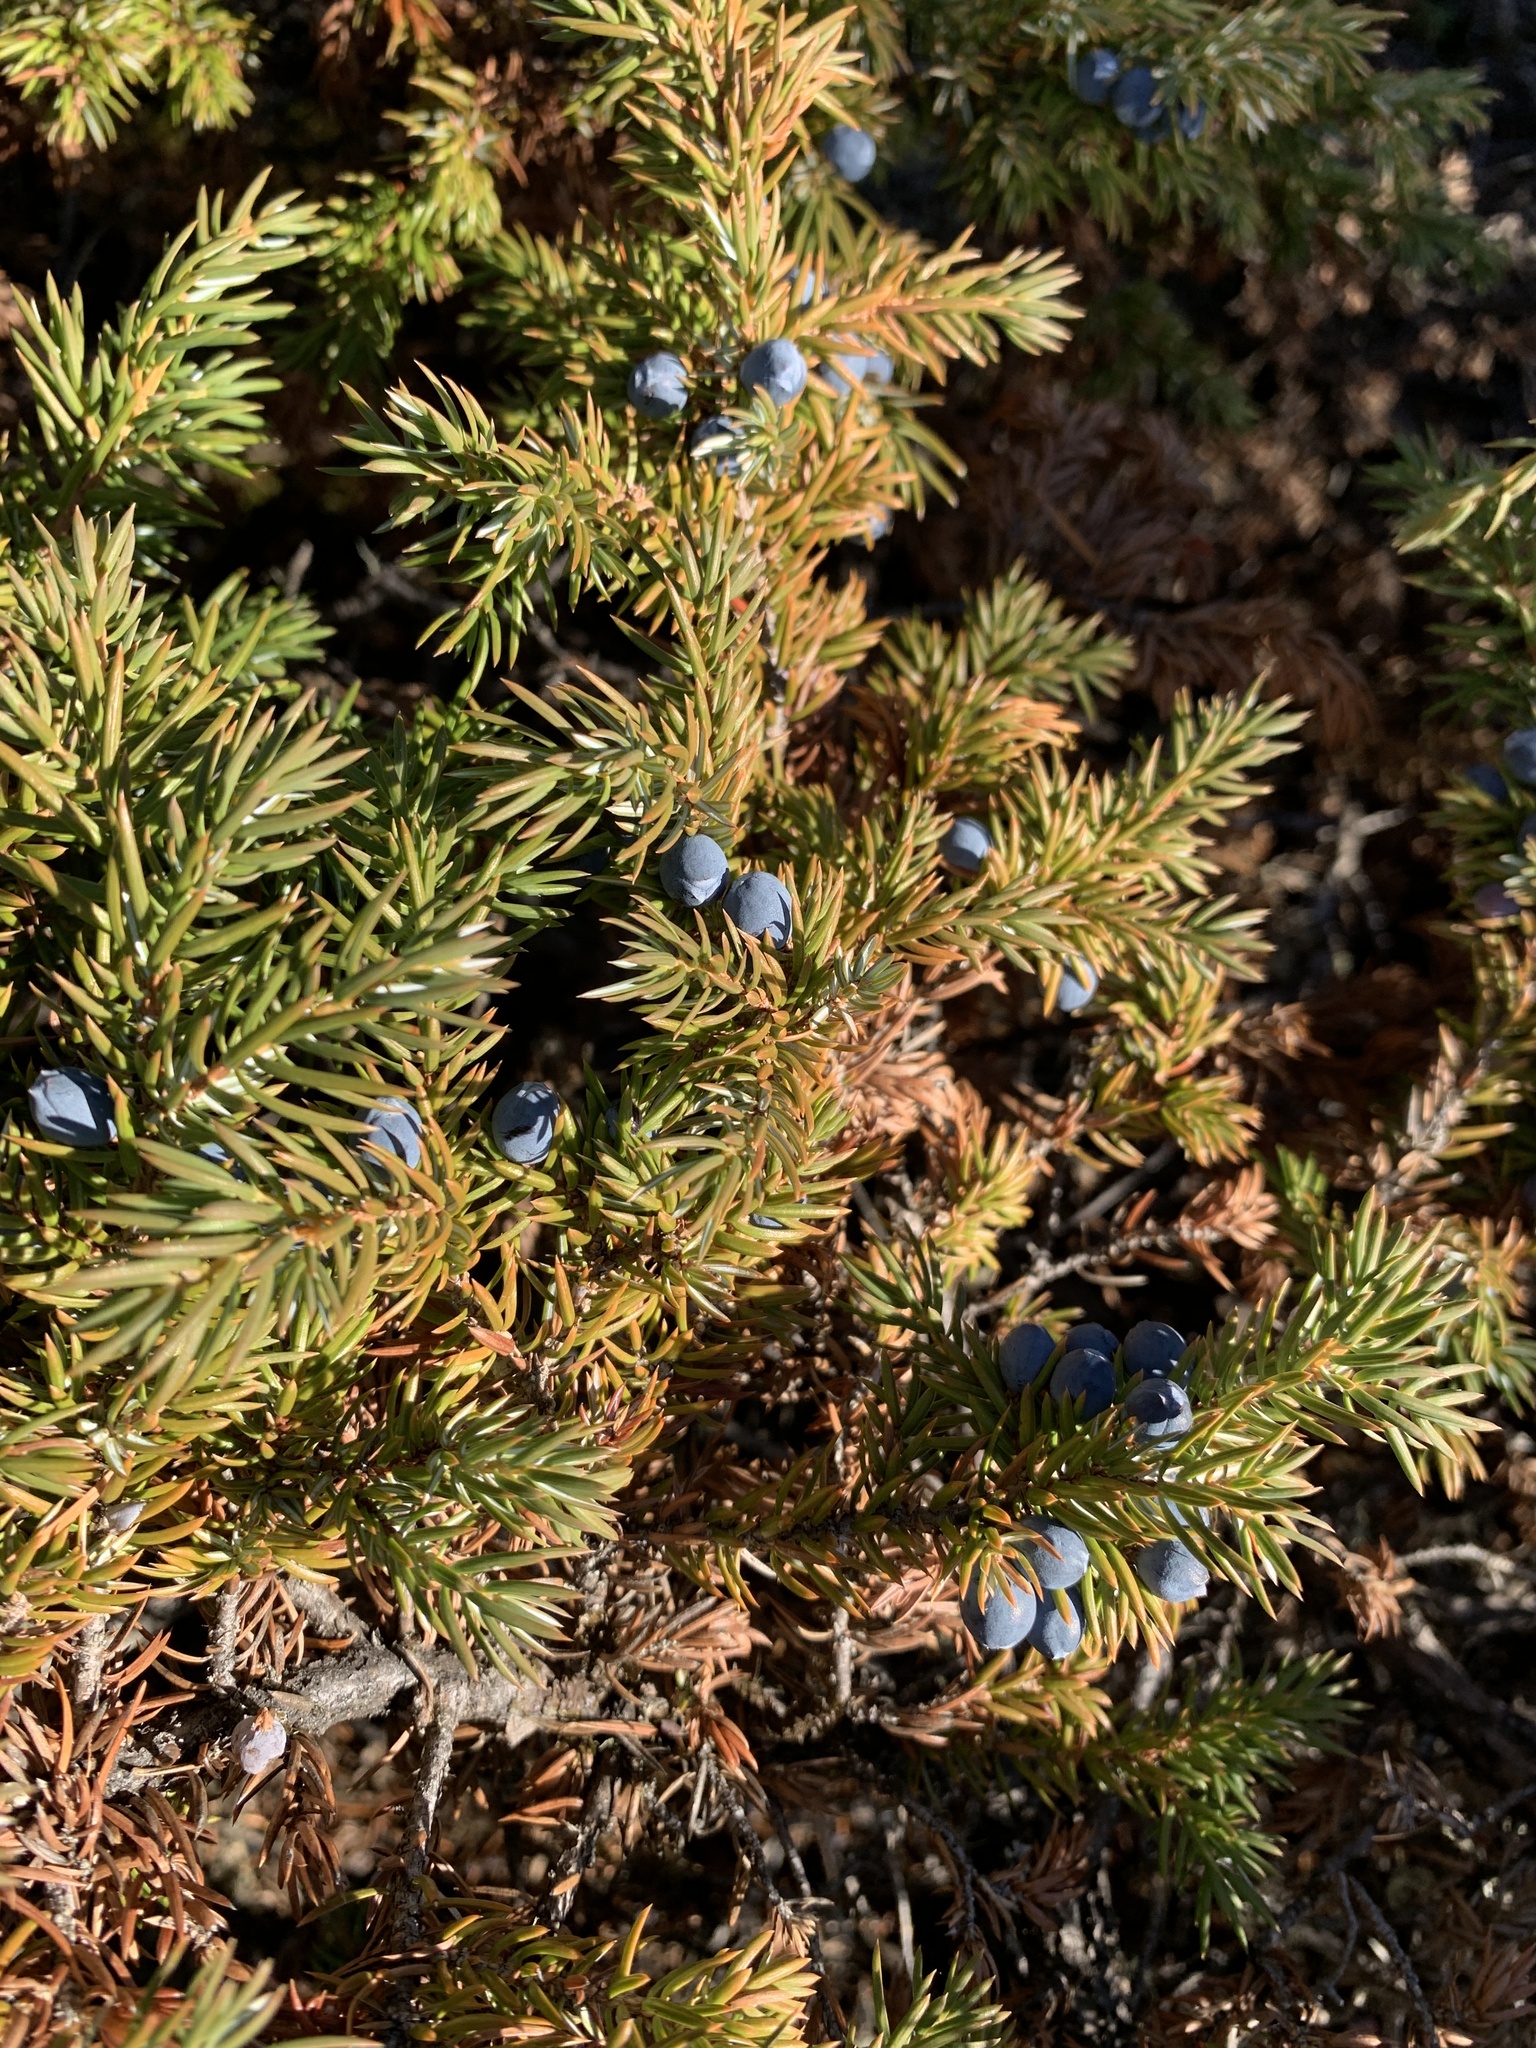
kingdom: Plantae
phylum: Tracheophyta
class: Pinopsida
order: Pinales
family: Cupressaceae
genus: Juniperus
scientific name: Juniperus communis
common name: Common juniper
